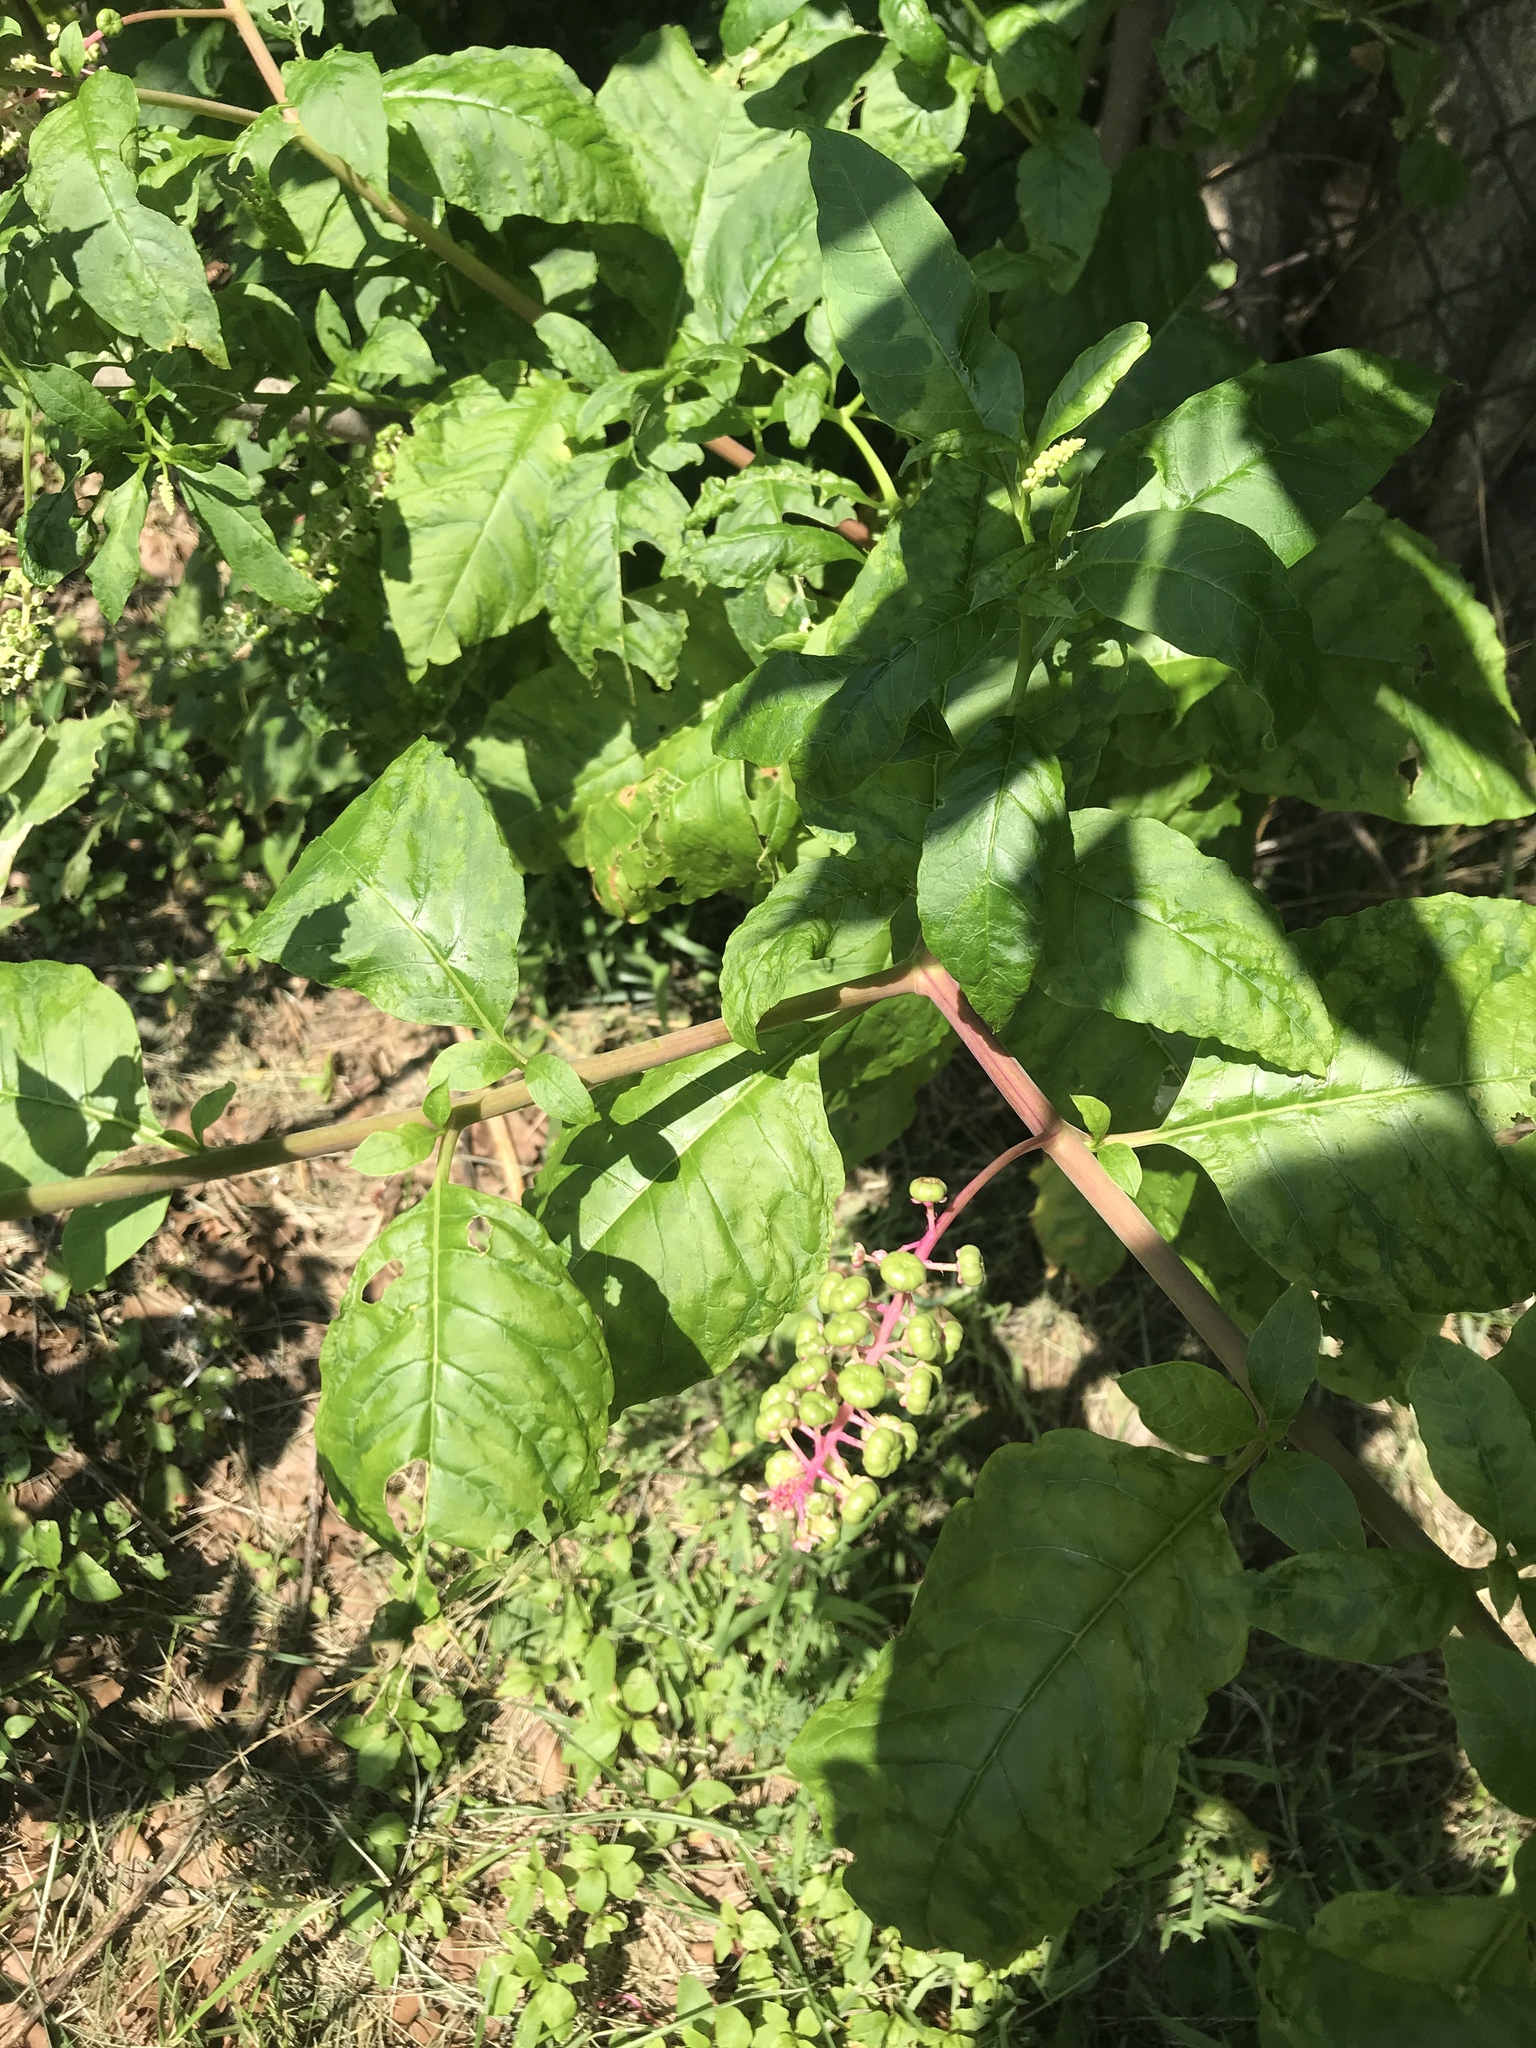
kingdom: Plantae
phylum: Tracheophyta
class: Magnoliopsida
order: Caryophyllales
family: Phytolaccaceae
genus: Phytolacca
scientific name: Phytolacca americana
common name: American pokeweed
